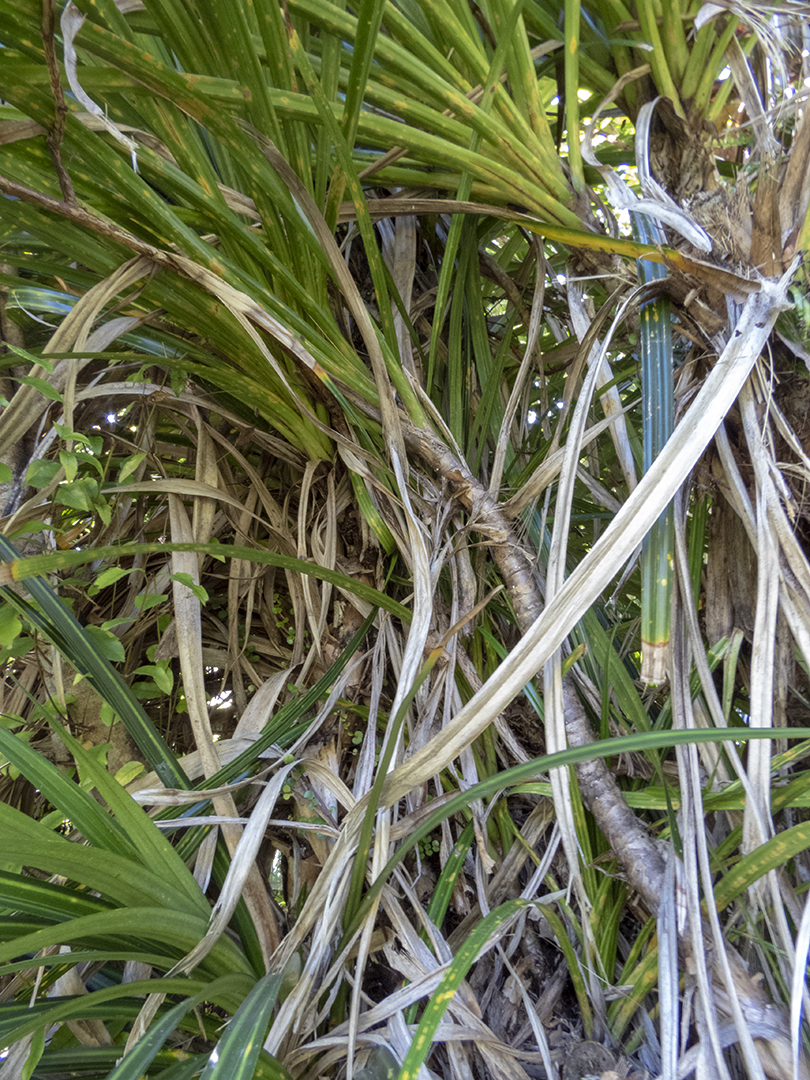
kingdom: Plantae
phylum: Tracheophyta
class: Liliopsida
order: Pandanales
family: Pandanaceae
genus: Freycinetia
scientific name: Freycinetia banksii
